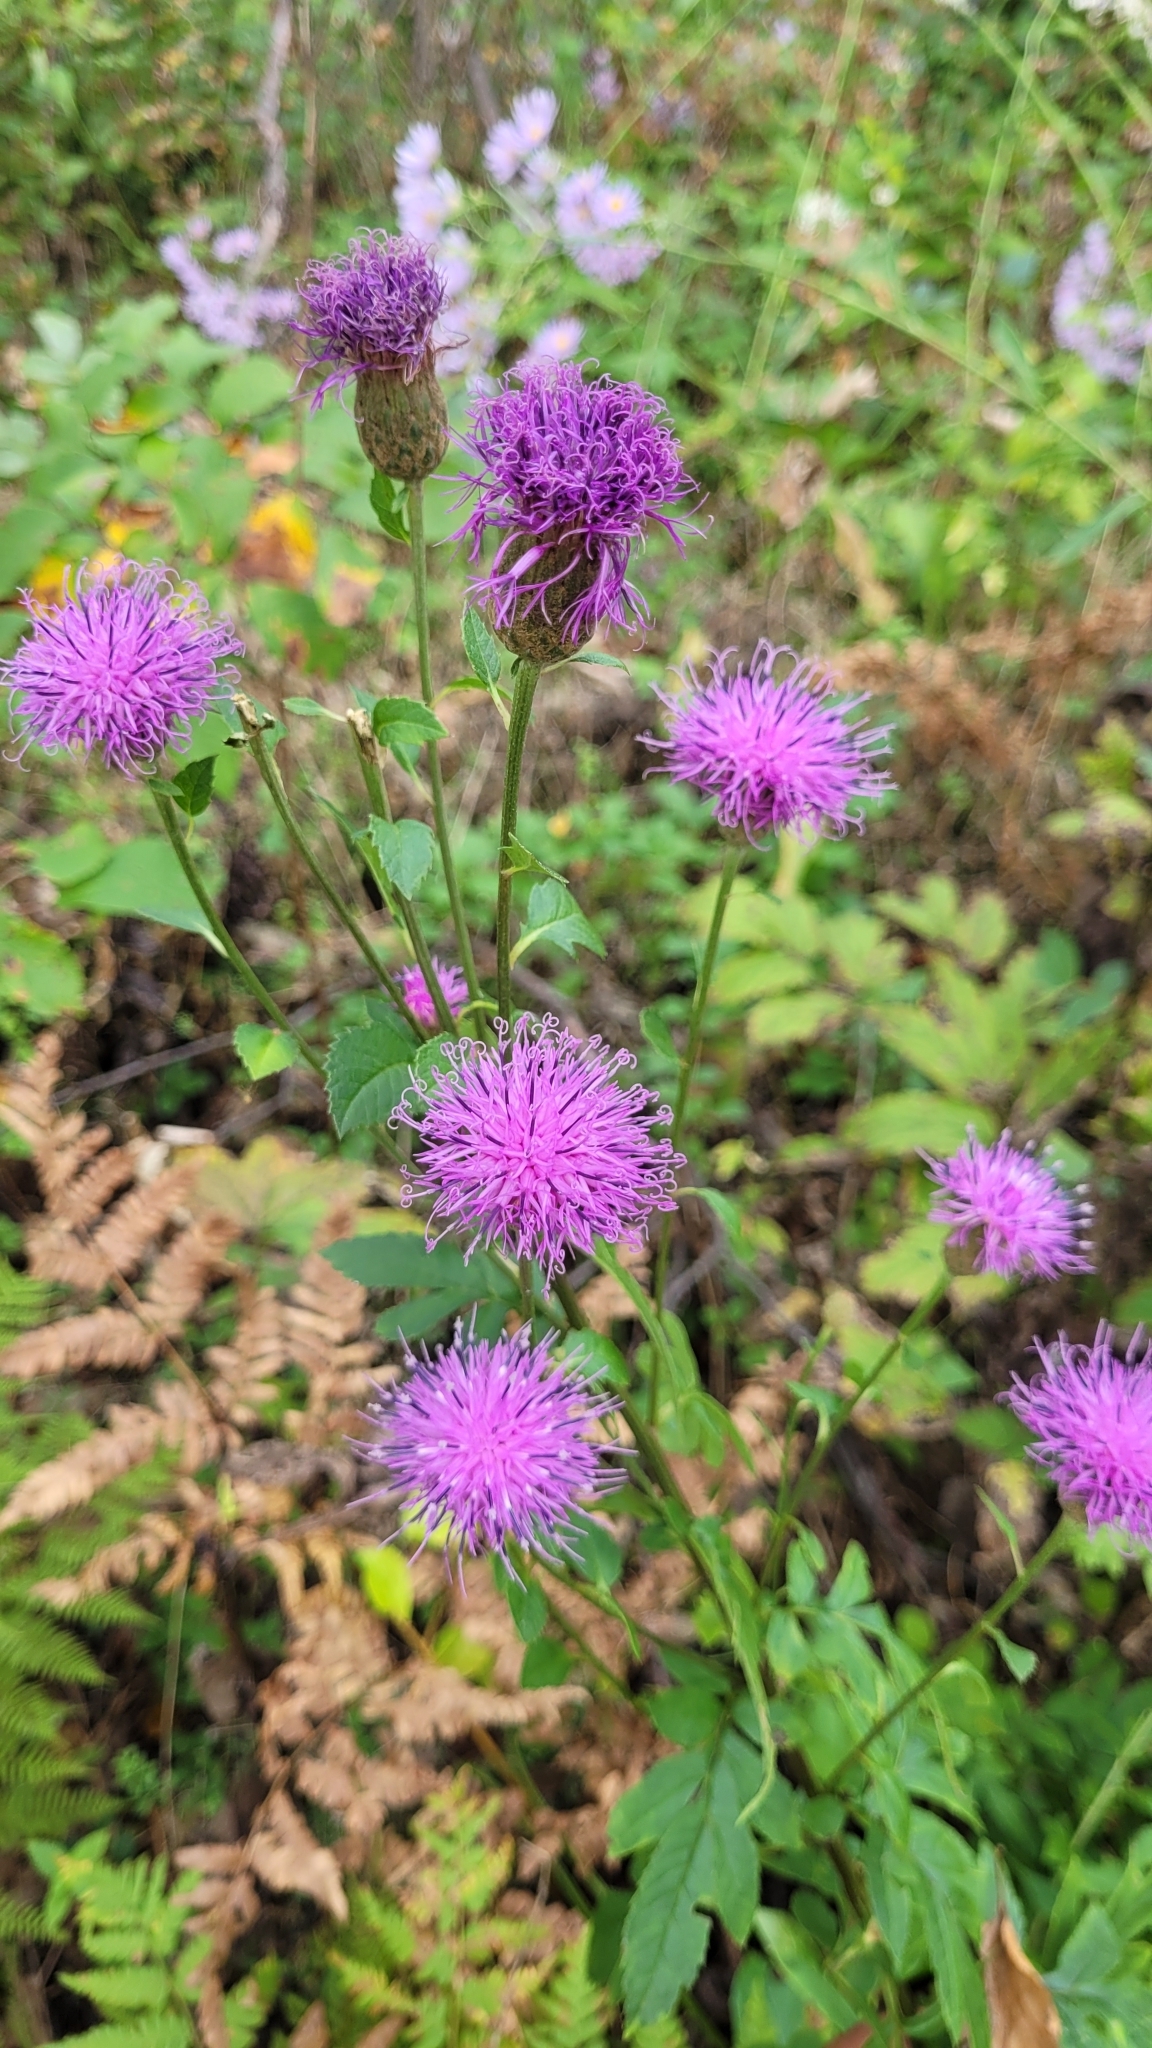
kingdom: Plantae
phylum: Tracheophyta
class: Magnoliopsida
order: Asterales
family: Asteraceae
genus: Serratula
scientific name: Serratula coronata
